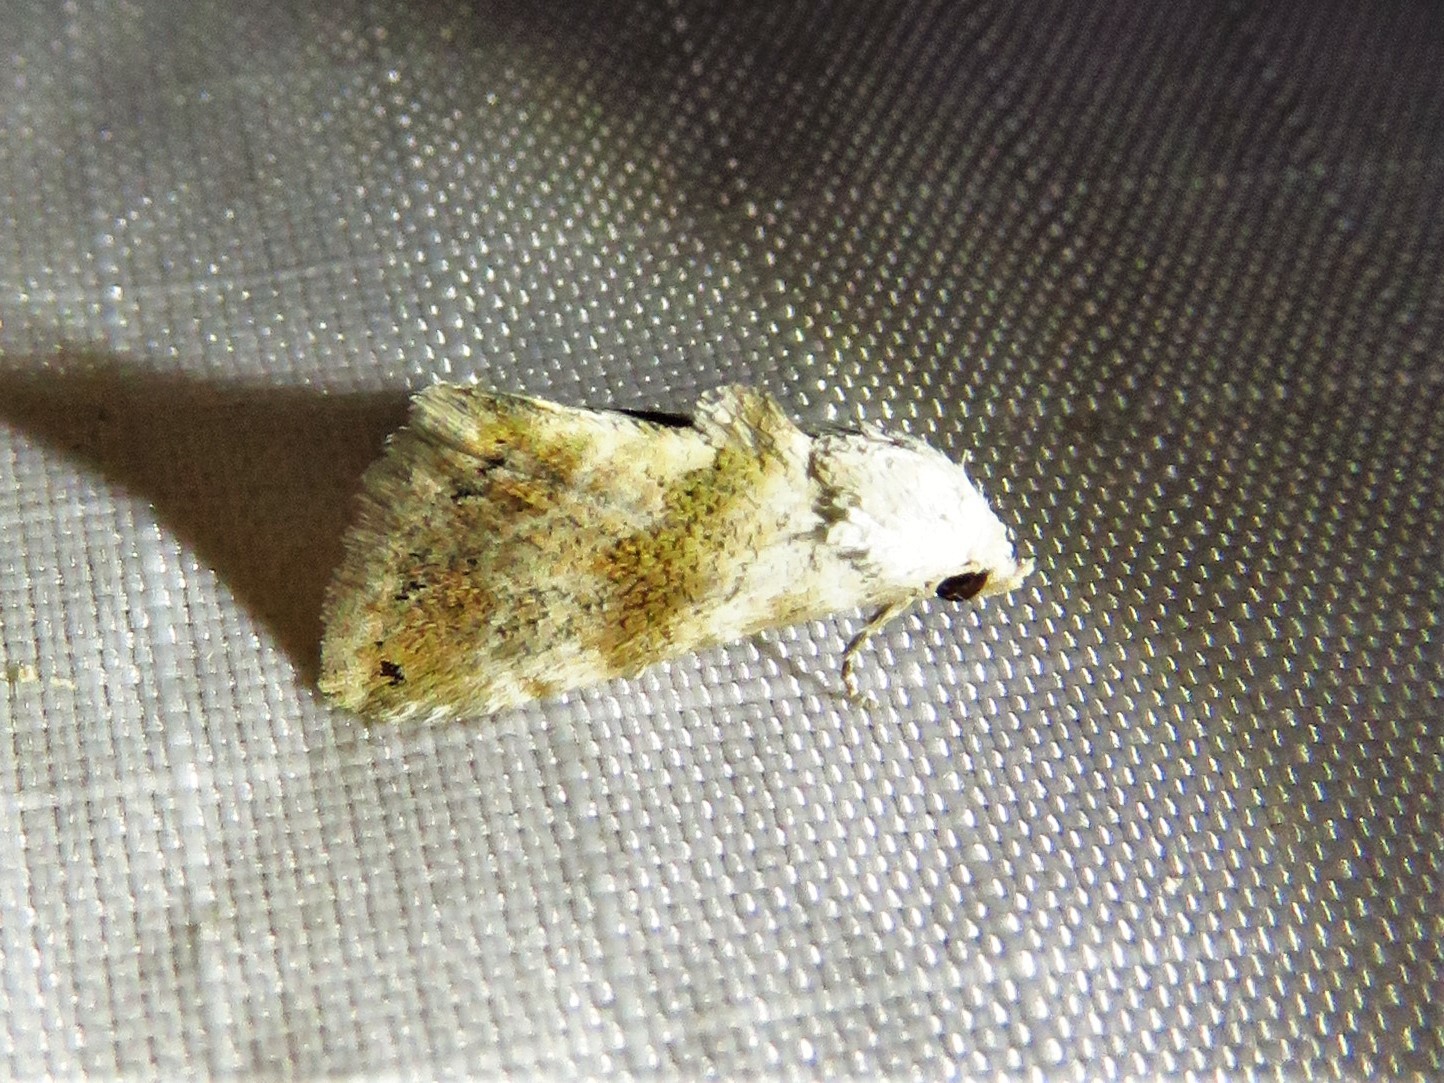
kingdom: Animalia
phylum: Arthropoda
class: Insecta
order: Lepidoptera
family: Noctuidae
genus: Eublemma
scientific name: Eublemma minima
